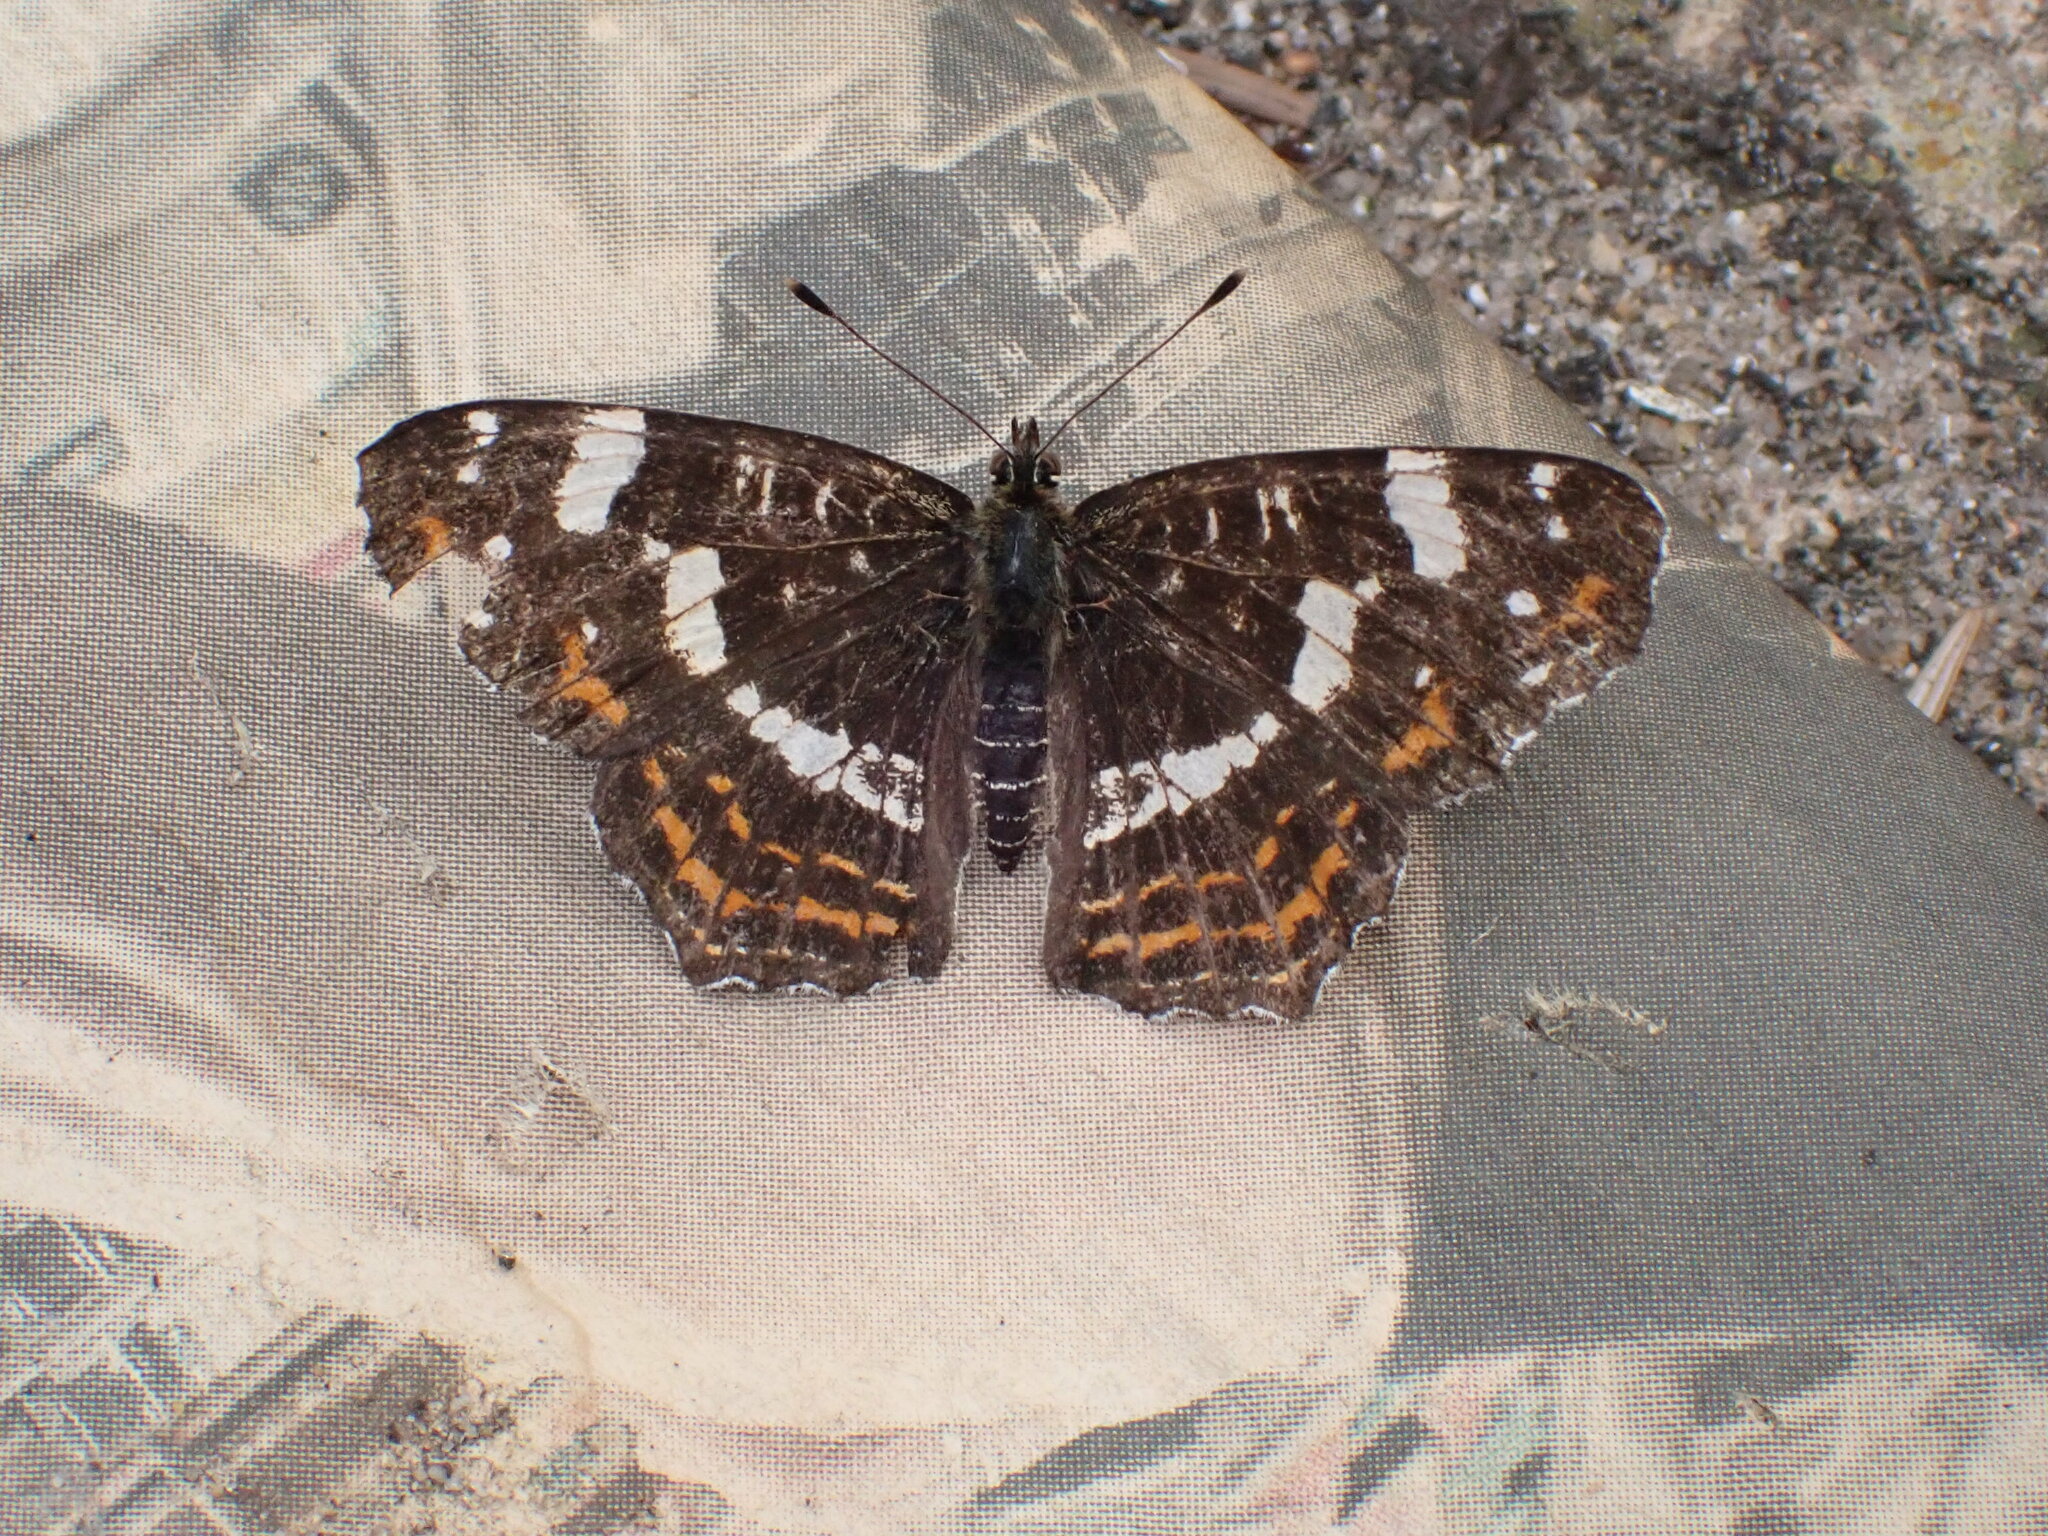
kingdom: Animalia
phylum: Arthropoda
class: Insecta
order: Lepidoptera
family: Nymphalidae
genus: Araschnia
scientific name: Araschnia levana
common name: Map butterfly
